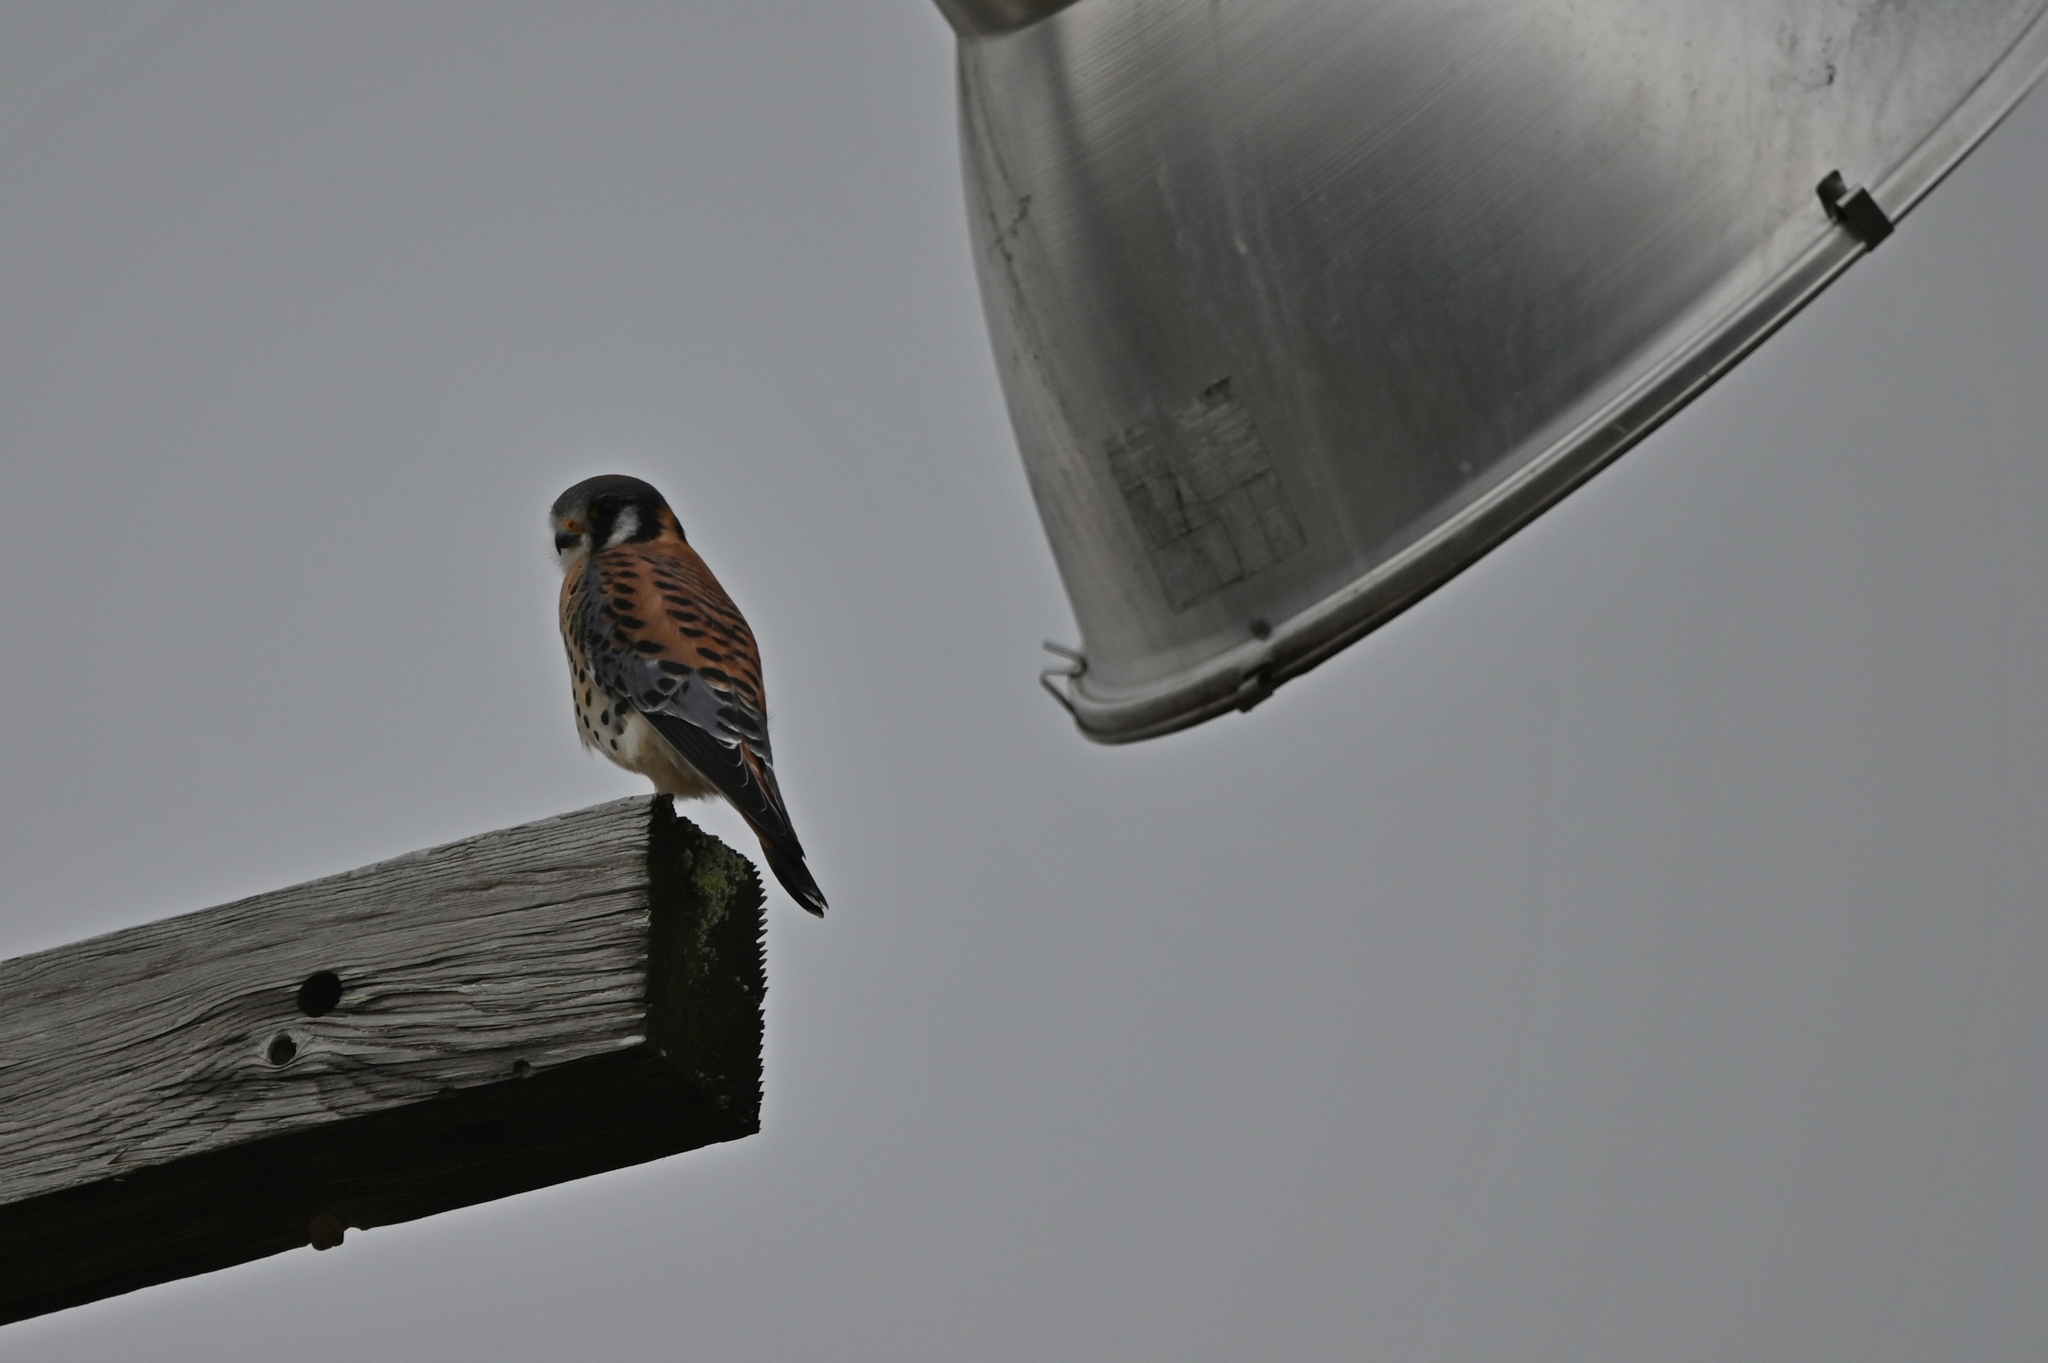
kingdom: Animalia
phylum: Chordata
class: Aves
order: Falconiformes
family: Falconidae
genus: Falco
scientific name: Falco sparverius
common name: American kestrel
